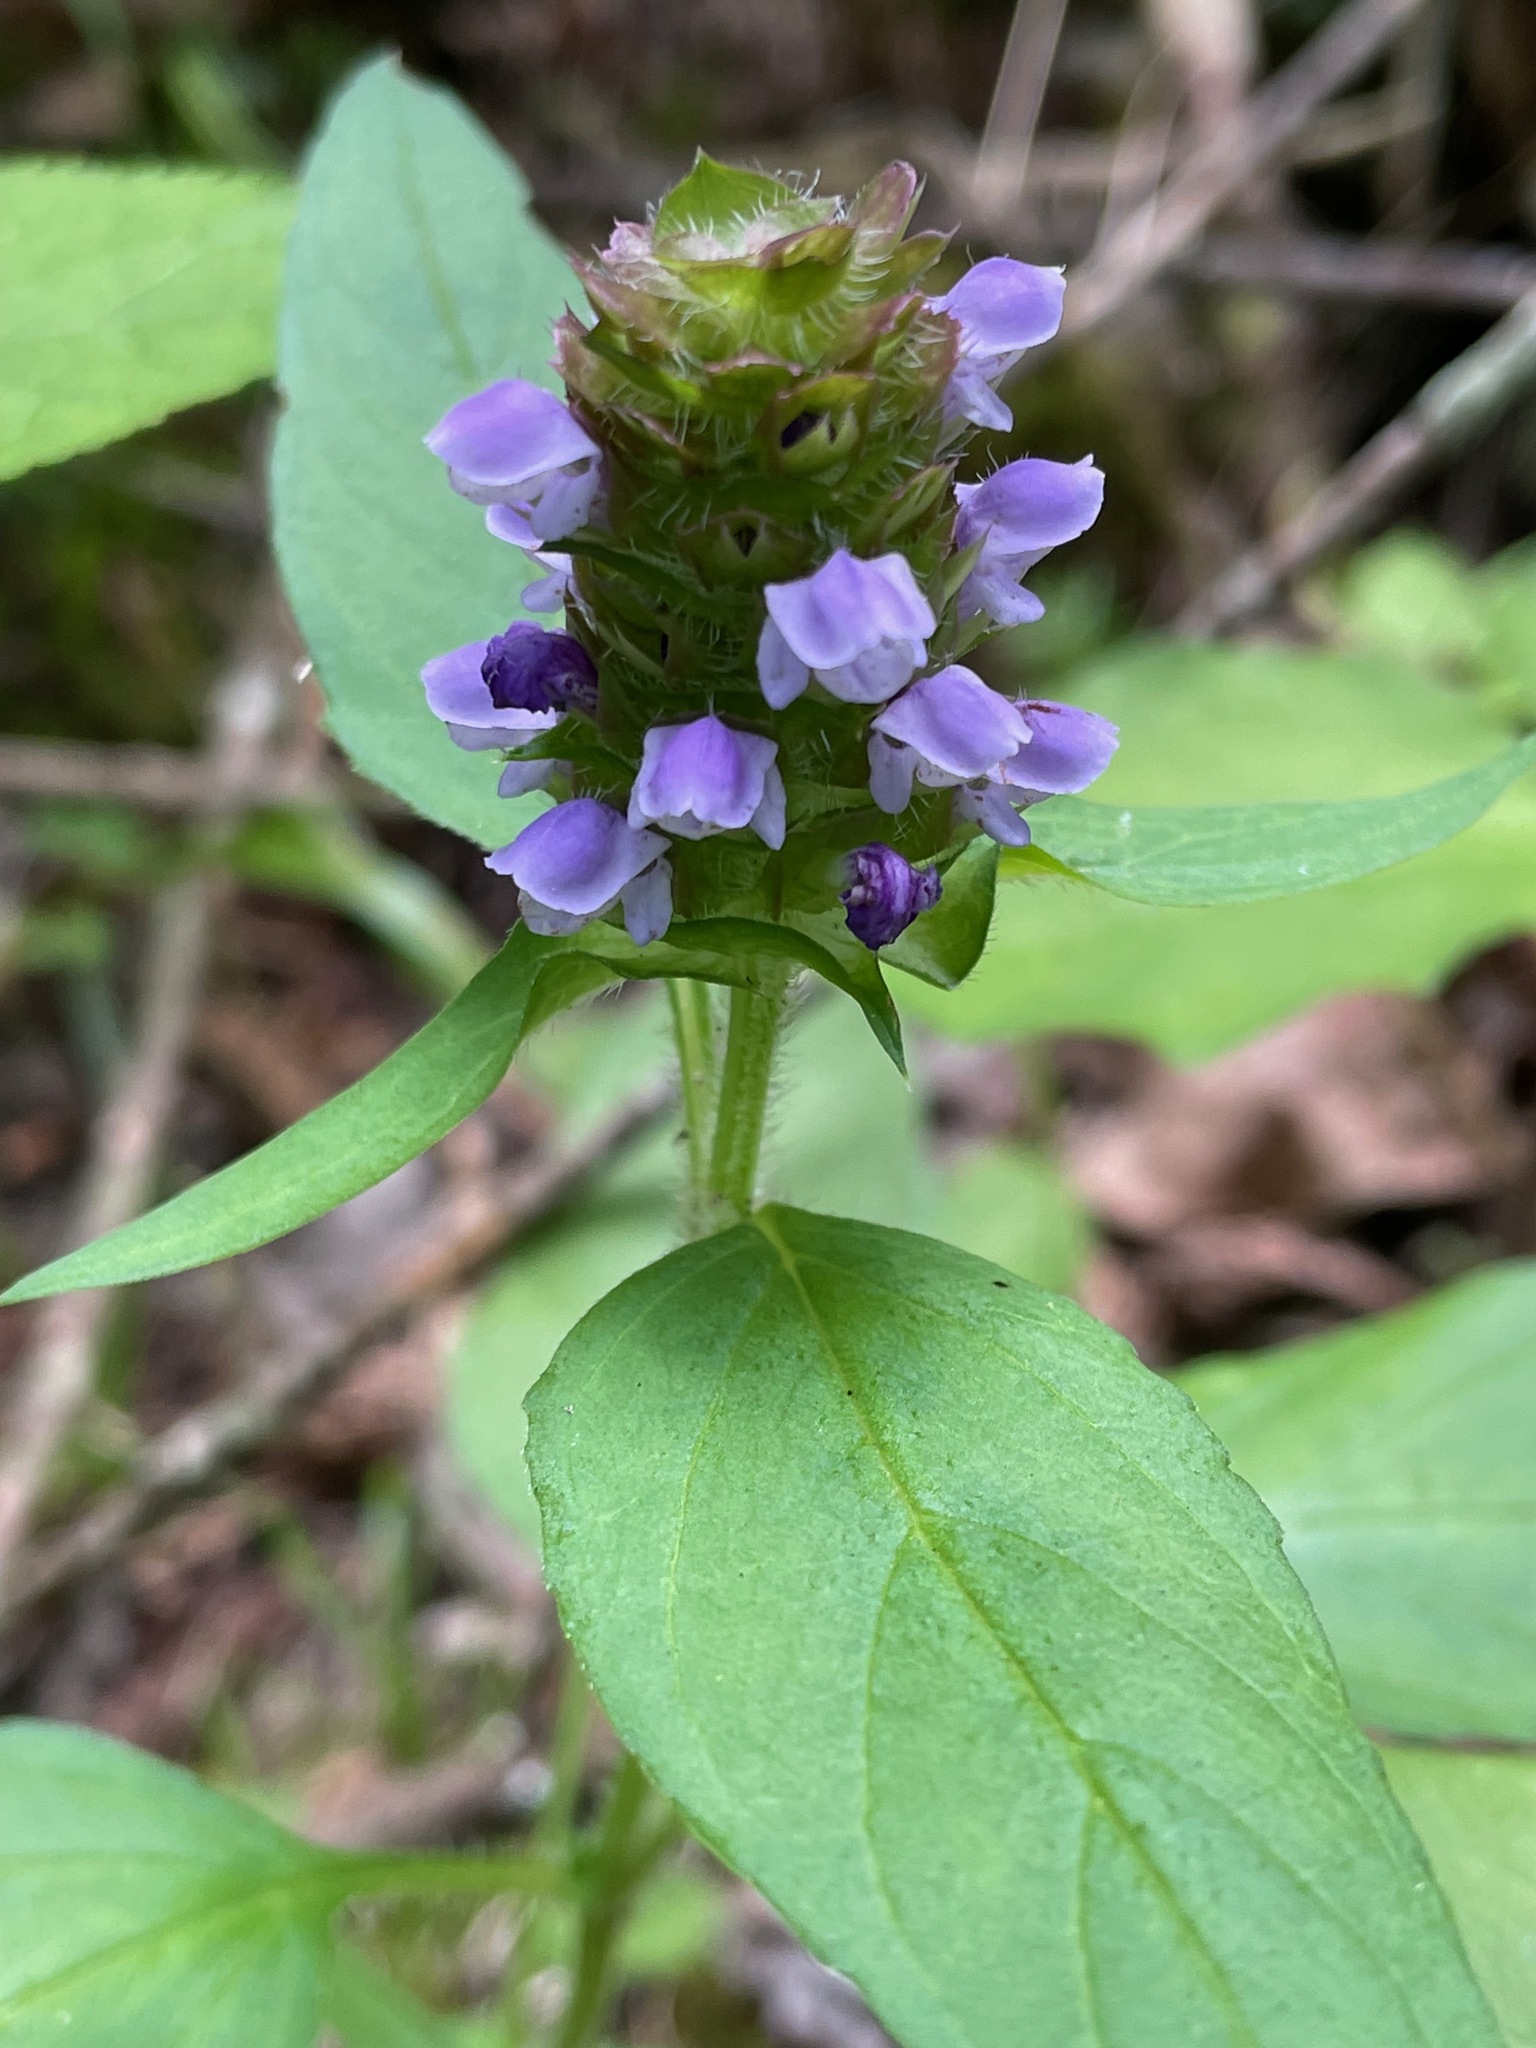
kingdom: Plantae
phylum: Tracheophyta
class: Magnoliopsida
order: Lamiales
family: Lamiaceae
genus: Prunella
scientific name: Prunella vulgaris
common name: Heal-all
